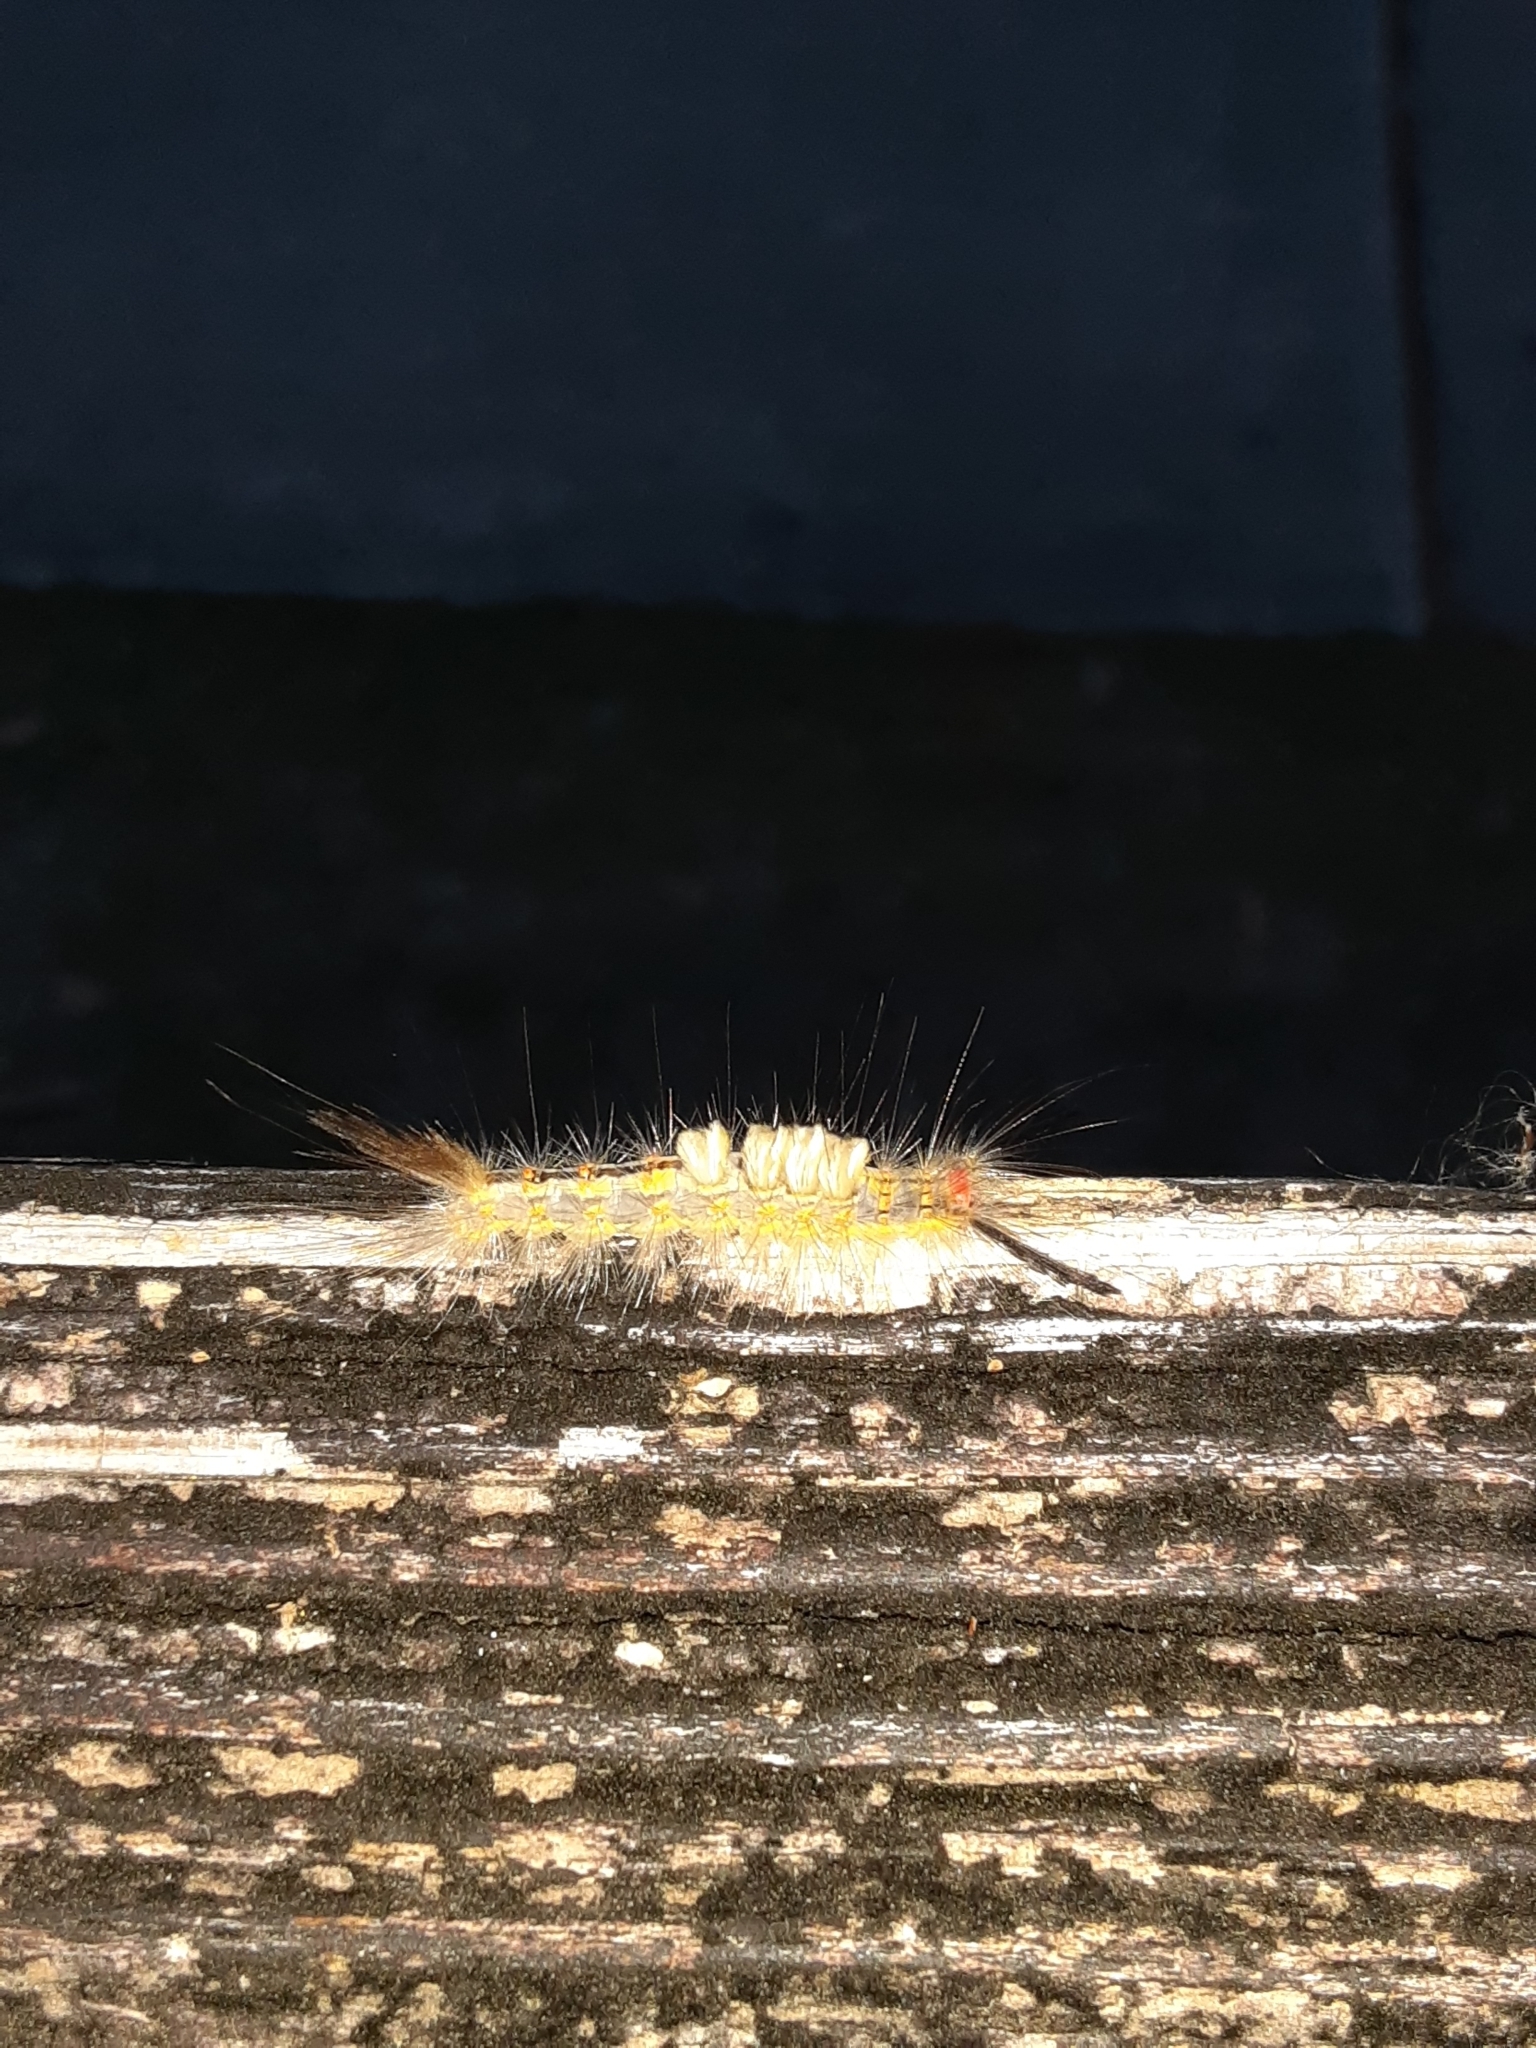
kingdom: Animalia
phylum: Arthropoda
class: Insecta
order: Lepidoptera
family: Erebidae
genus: Orgyia
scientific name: Orgyia detrita
